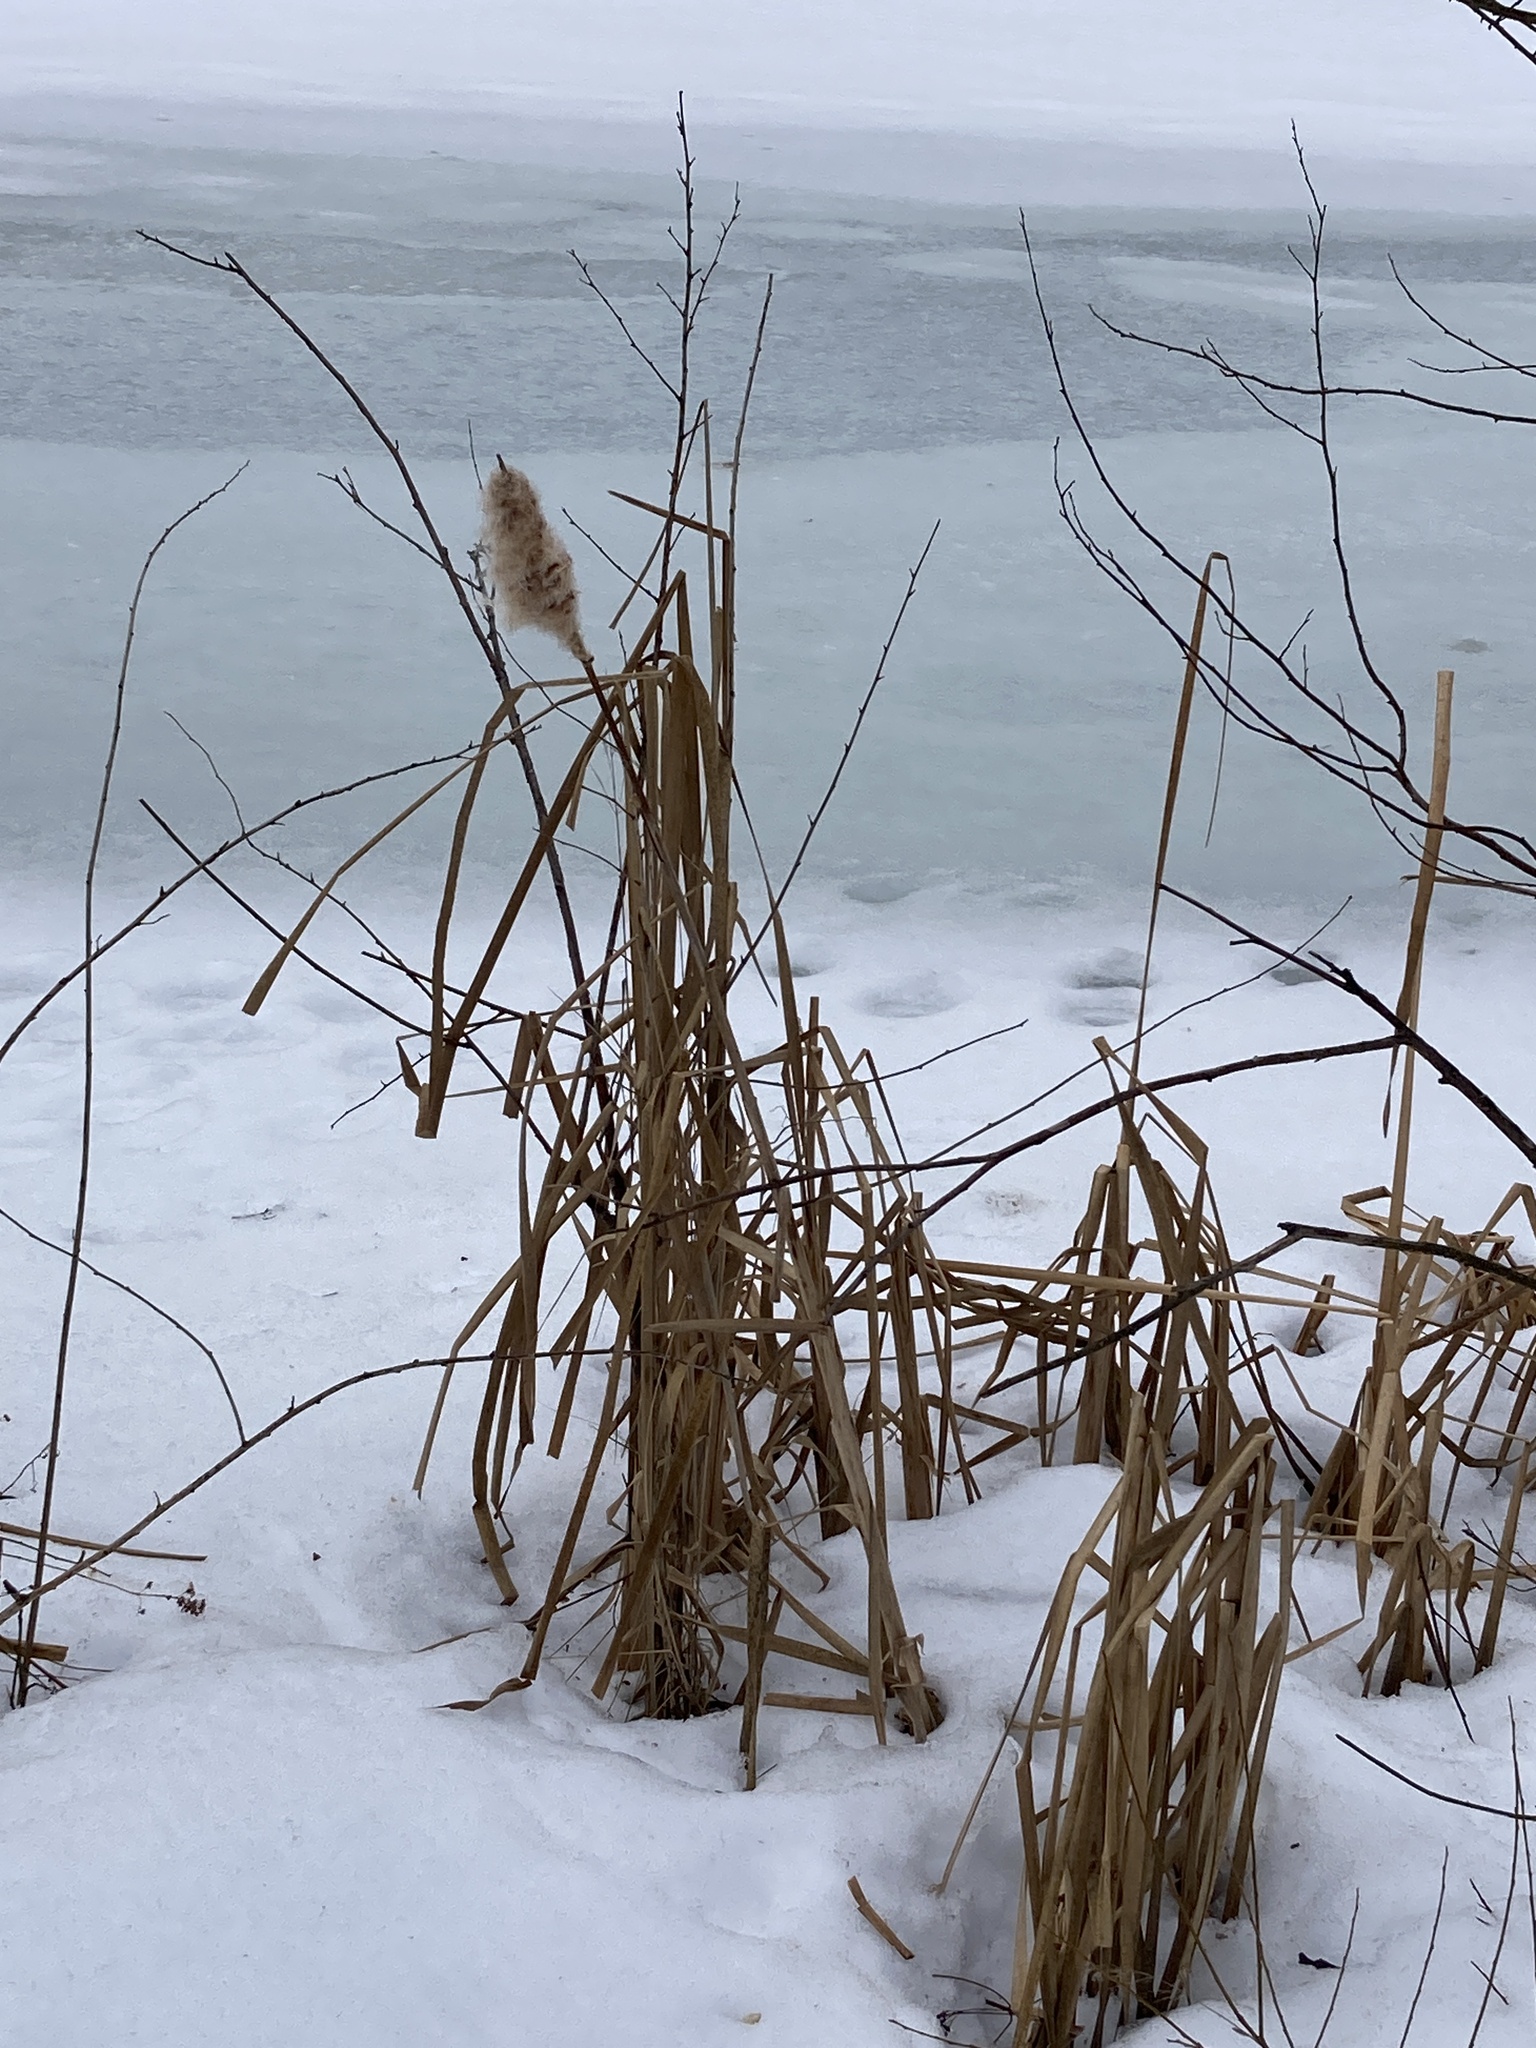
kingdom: Plantae
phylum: Tracheophyta
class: Liliopsida
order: Poales
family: Typhaceae
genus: Typha
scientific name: Typha latifolia
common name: Broadleaf cattail
